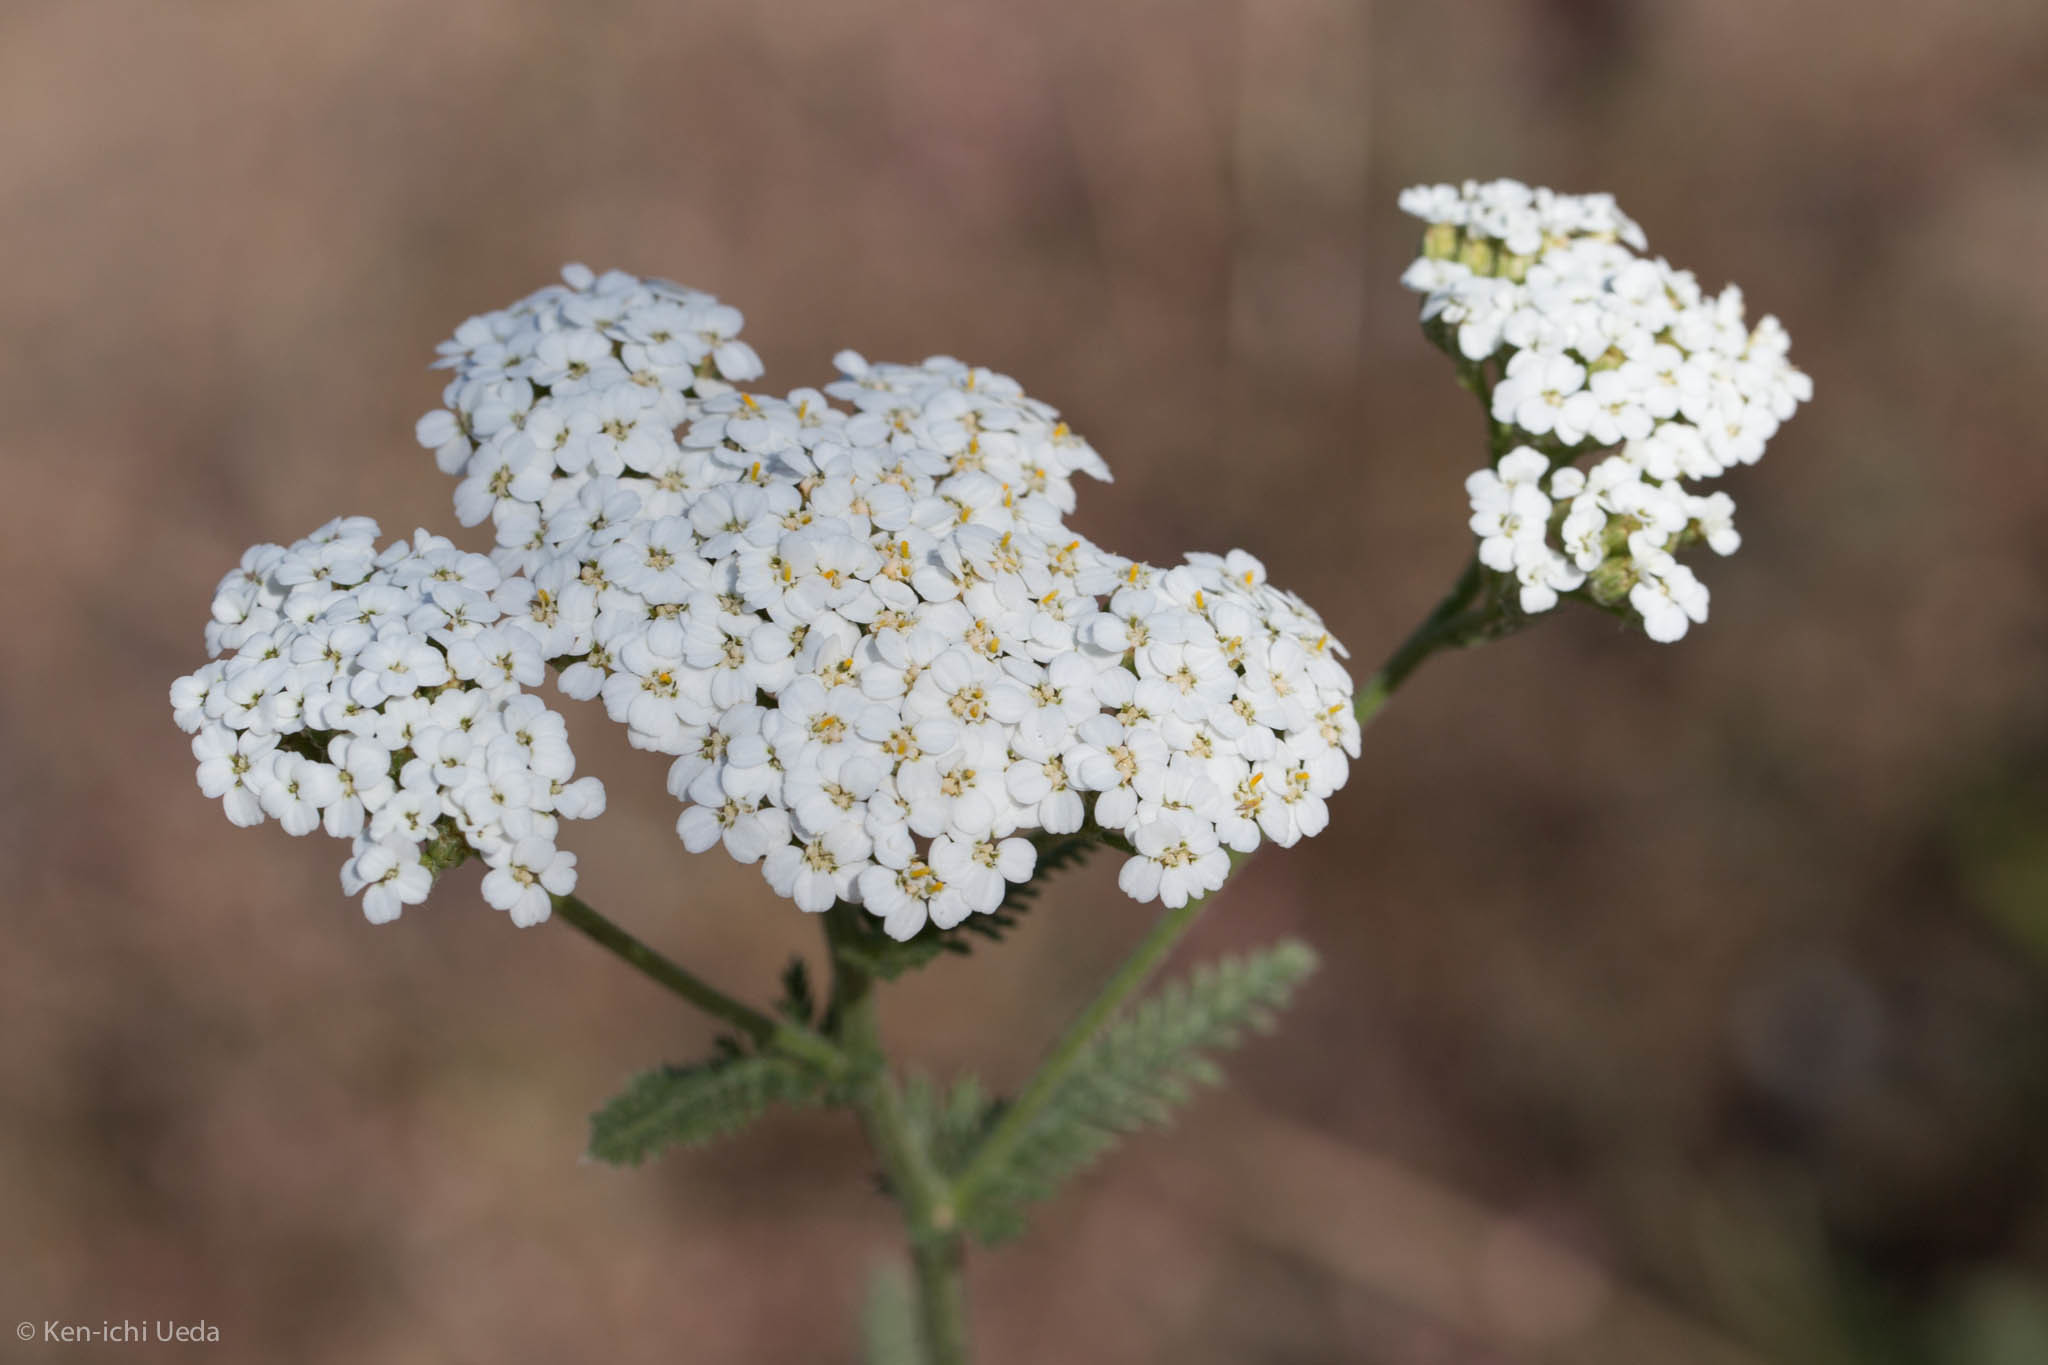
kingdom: Plantae
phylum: Tracheophyta
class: Magnoliopsida
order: Asterales
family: Asteraceae
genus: Achillea
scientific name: Achillea millefolium
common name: Yarrow
